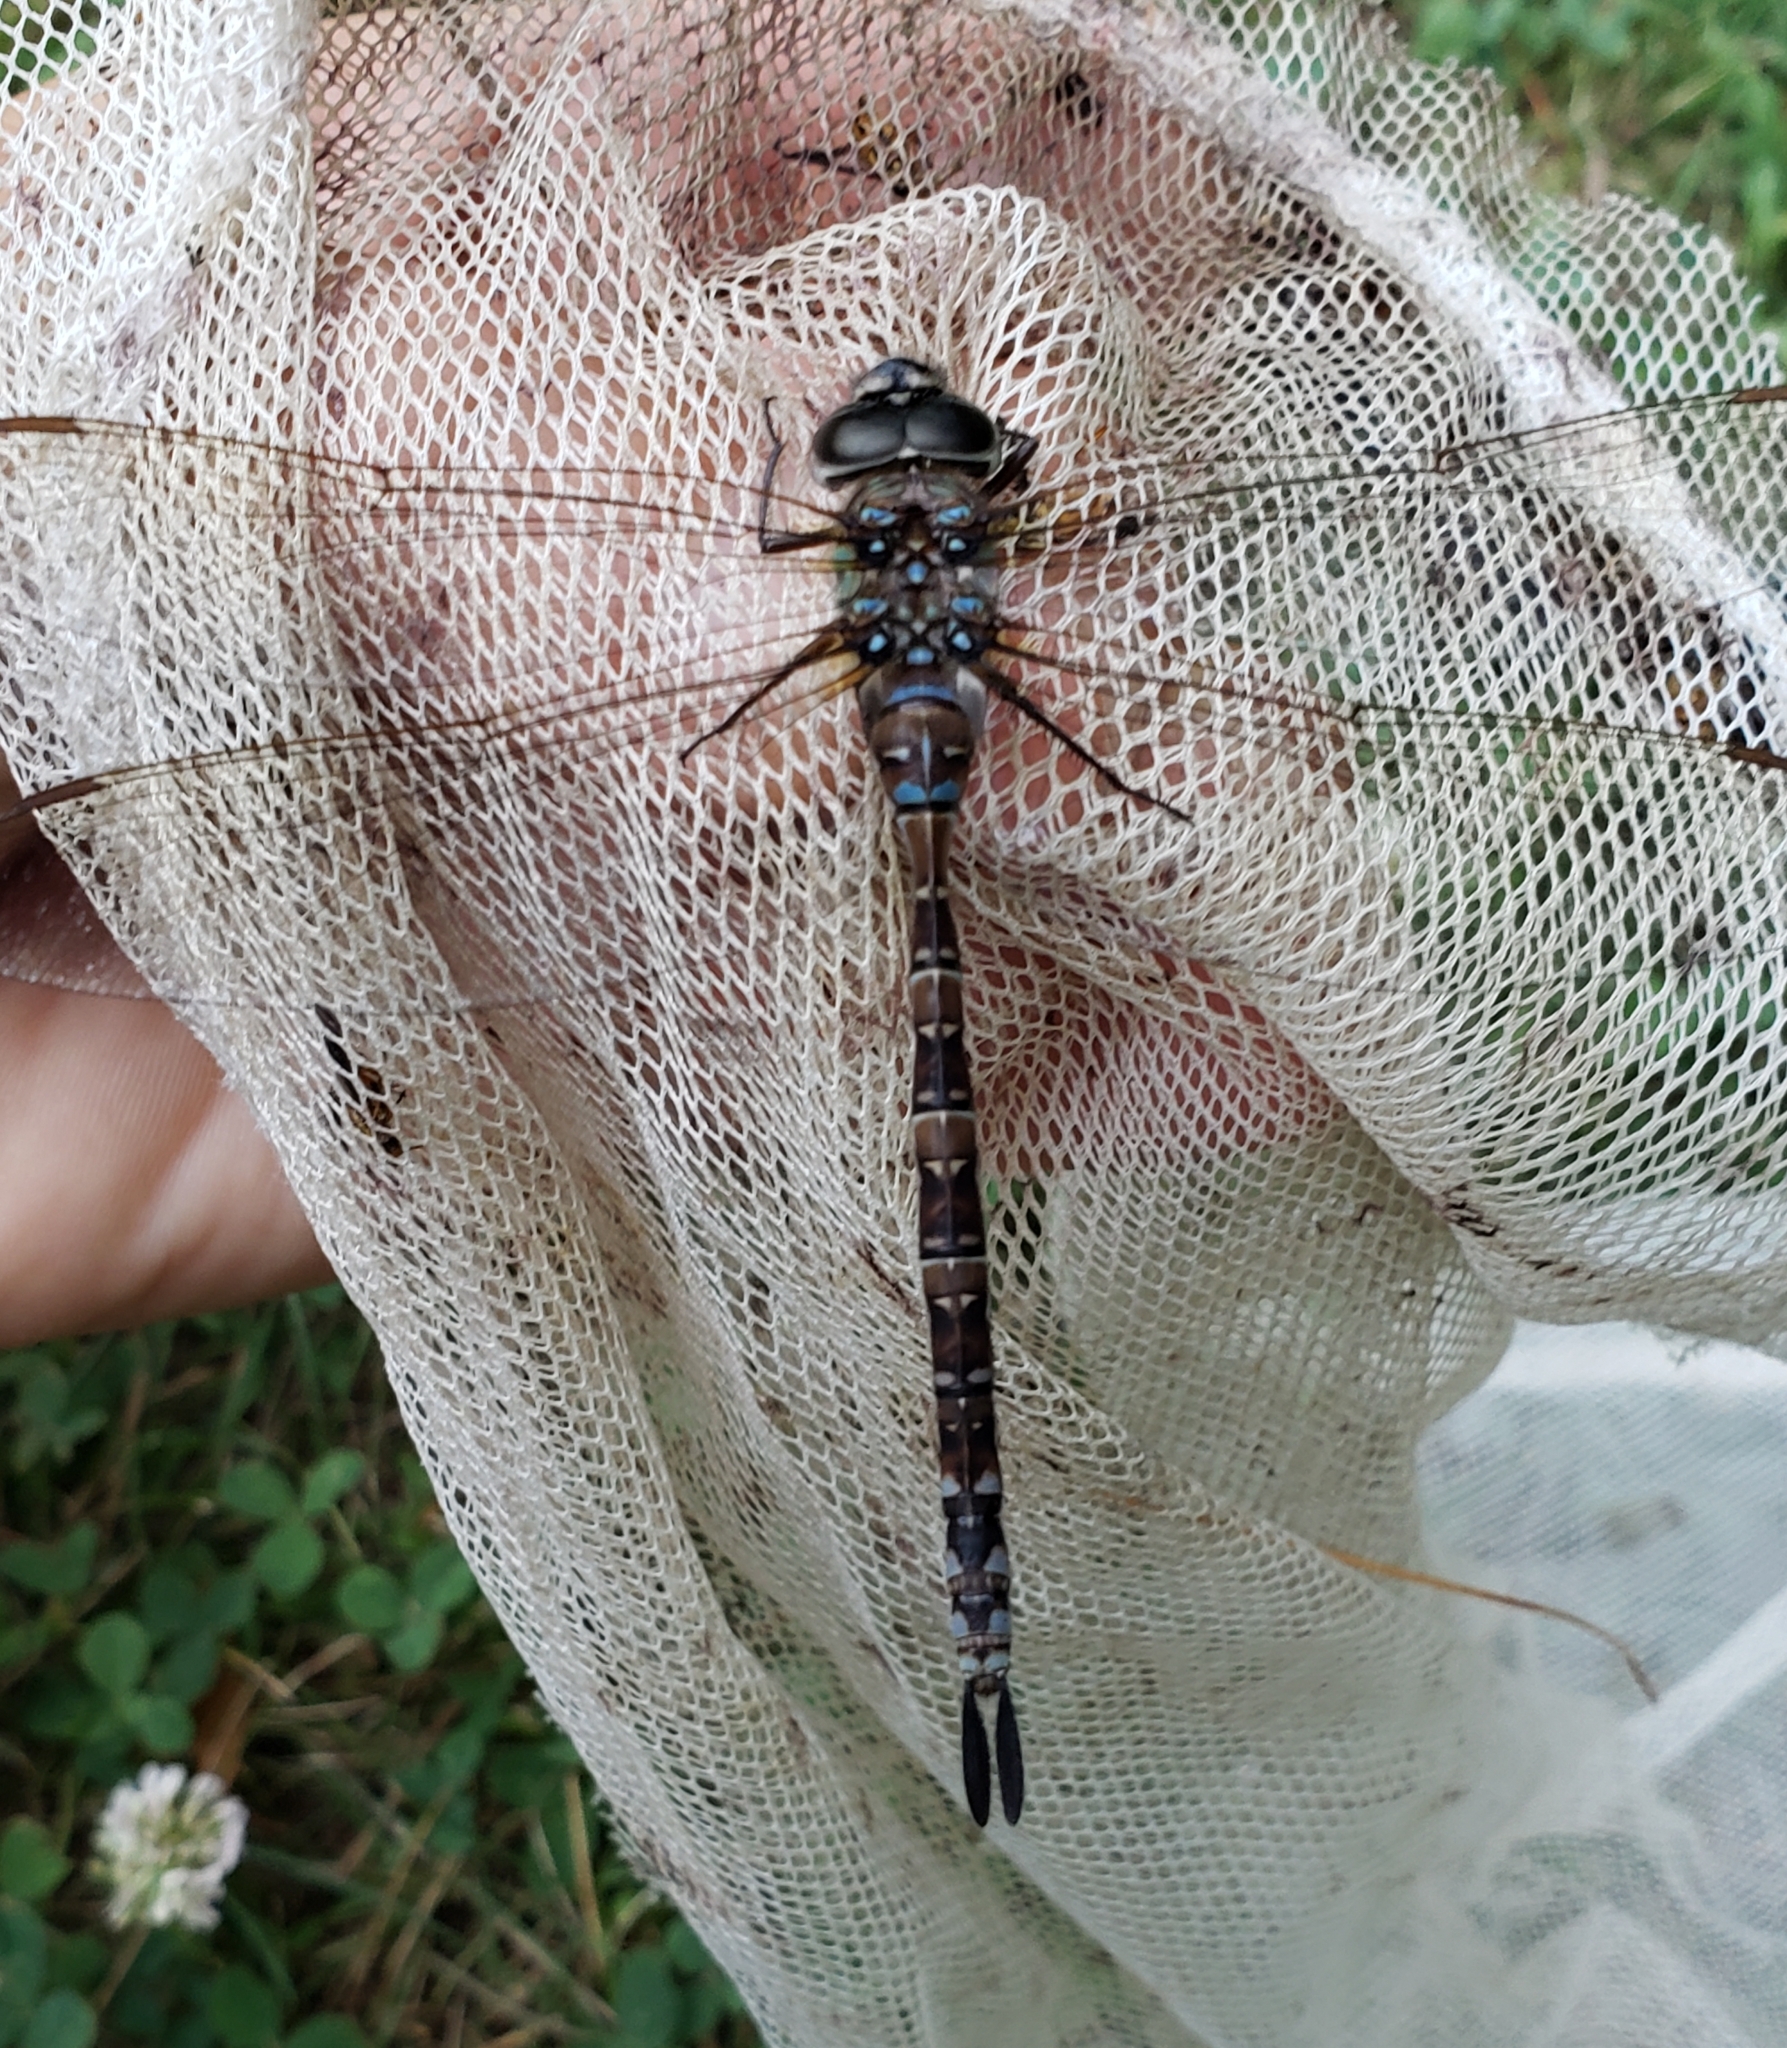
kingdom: Animalia
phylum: Arthropoda
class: Insecta
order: Odonata
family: Aeshnidae
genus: Aeshna
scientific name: Aeshna verticalis
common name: Green-striped darner
